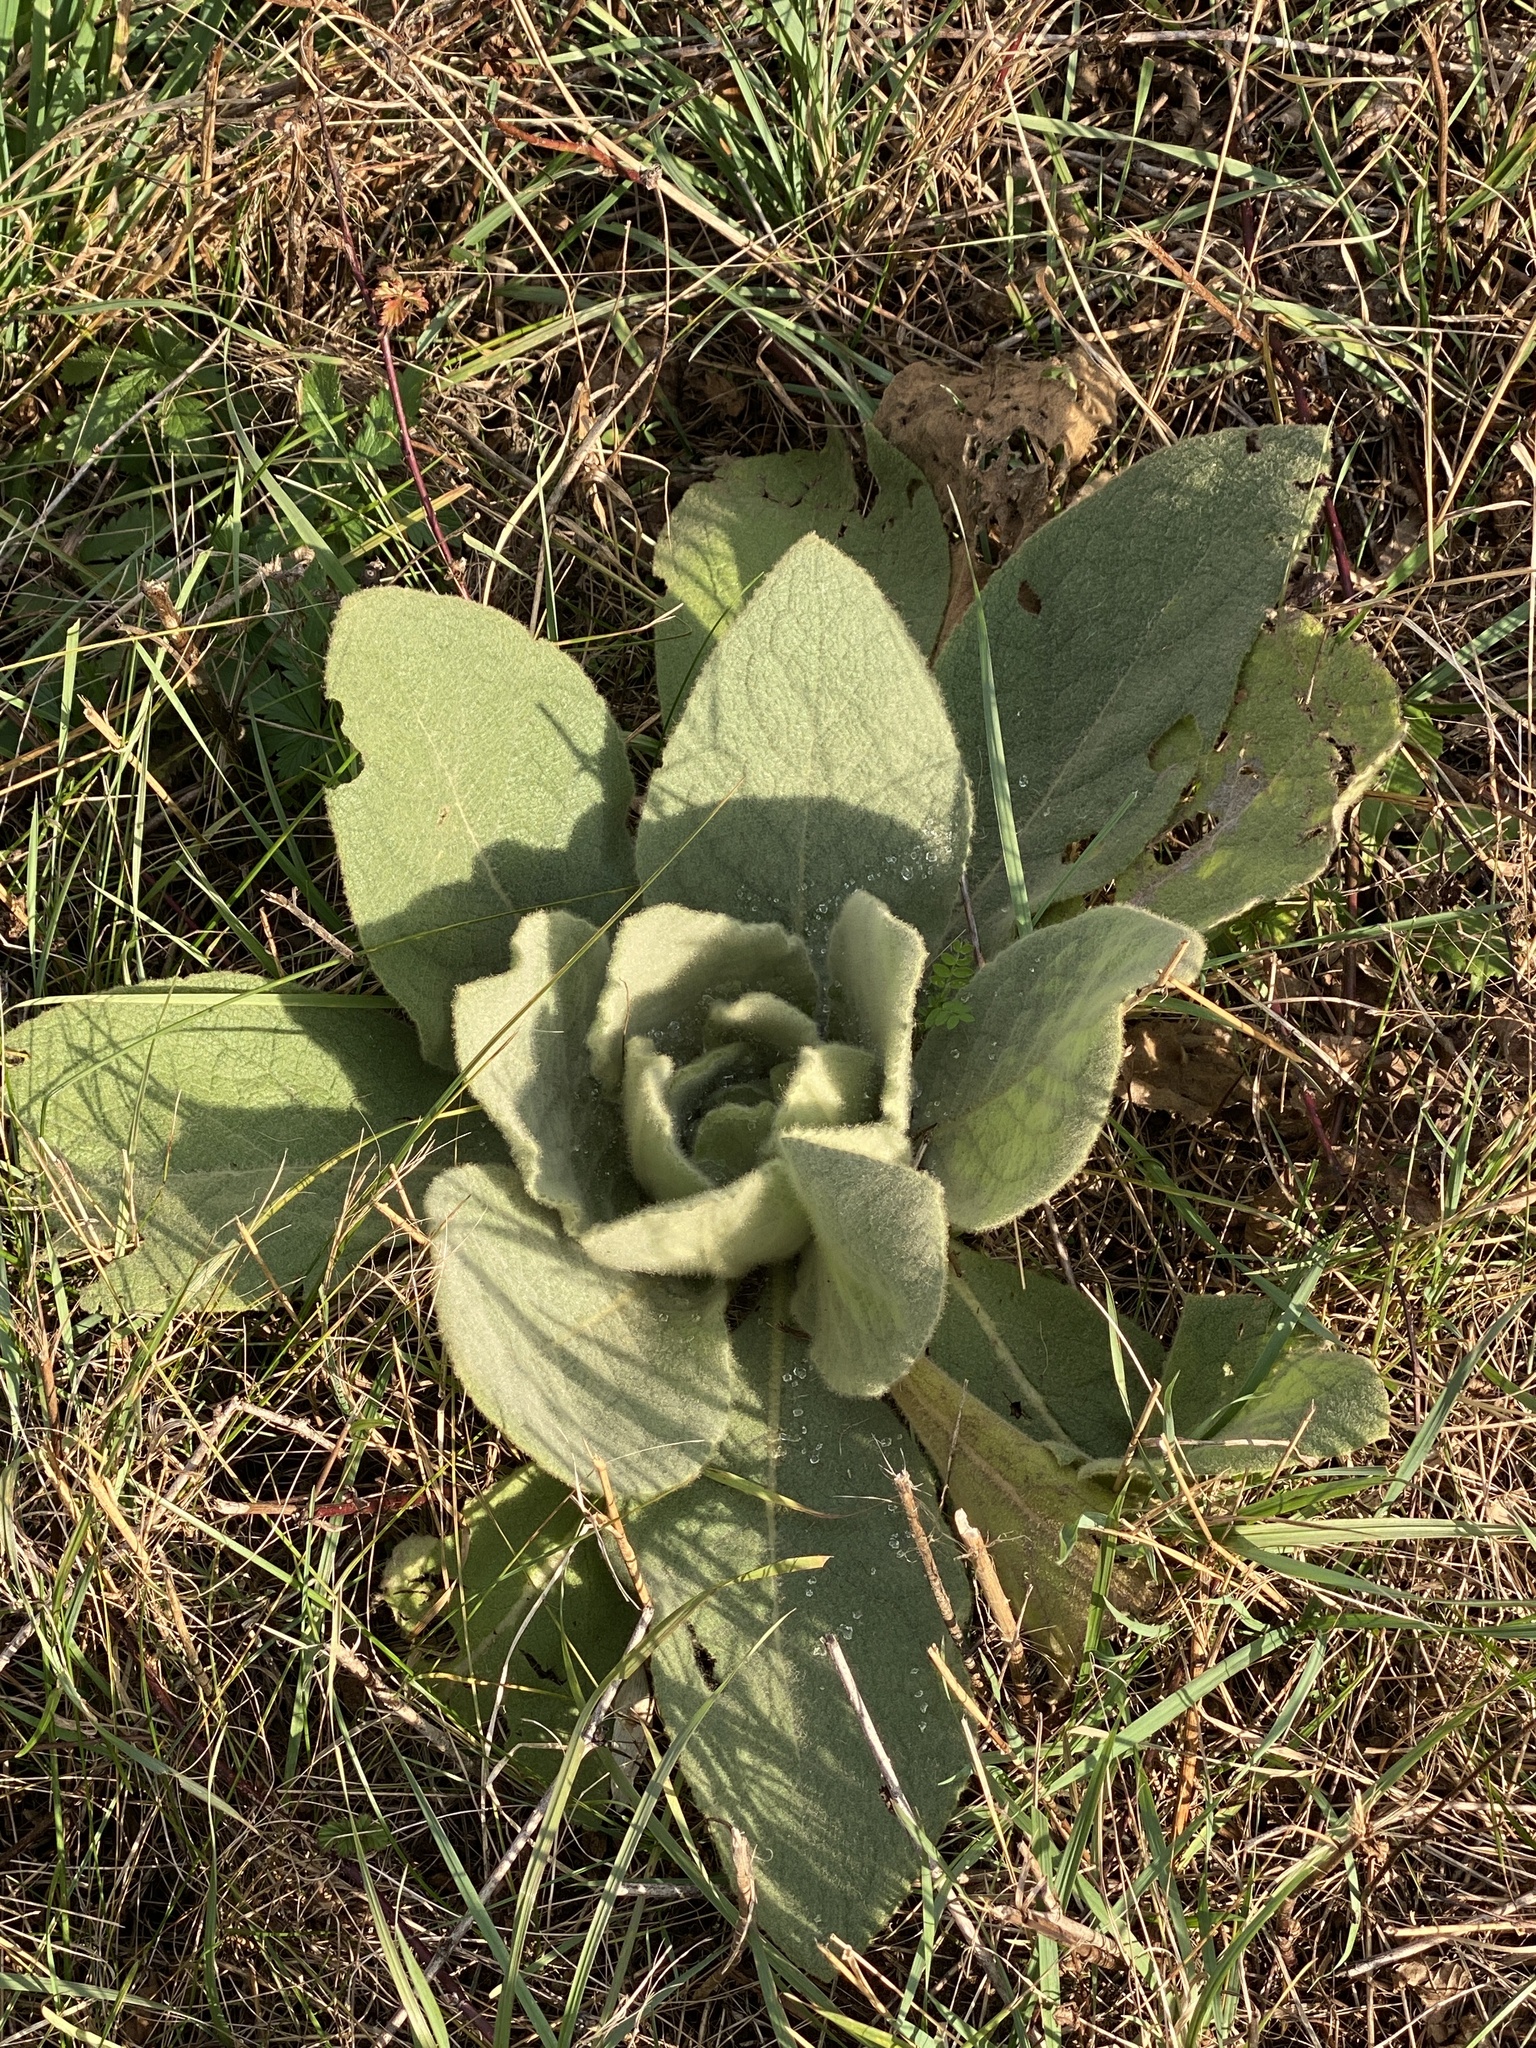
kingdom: Plantae
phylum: Tracheophyta
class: Magnoliopsida
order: Lamiales
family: Scrophulariaceae
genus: Verbascum
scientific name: Verbascum thapsus
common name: Common mullein
